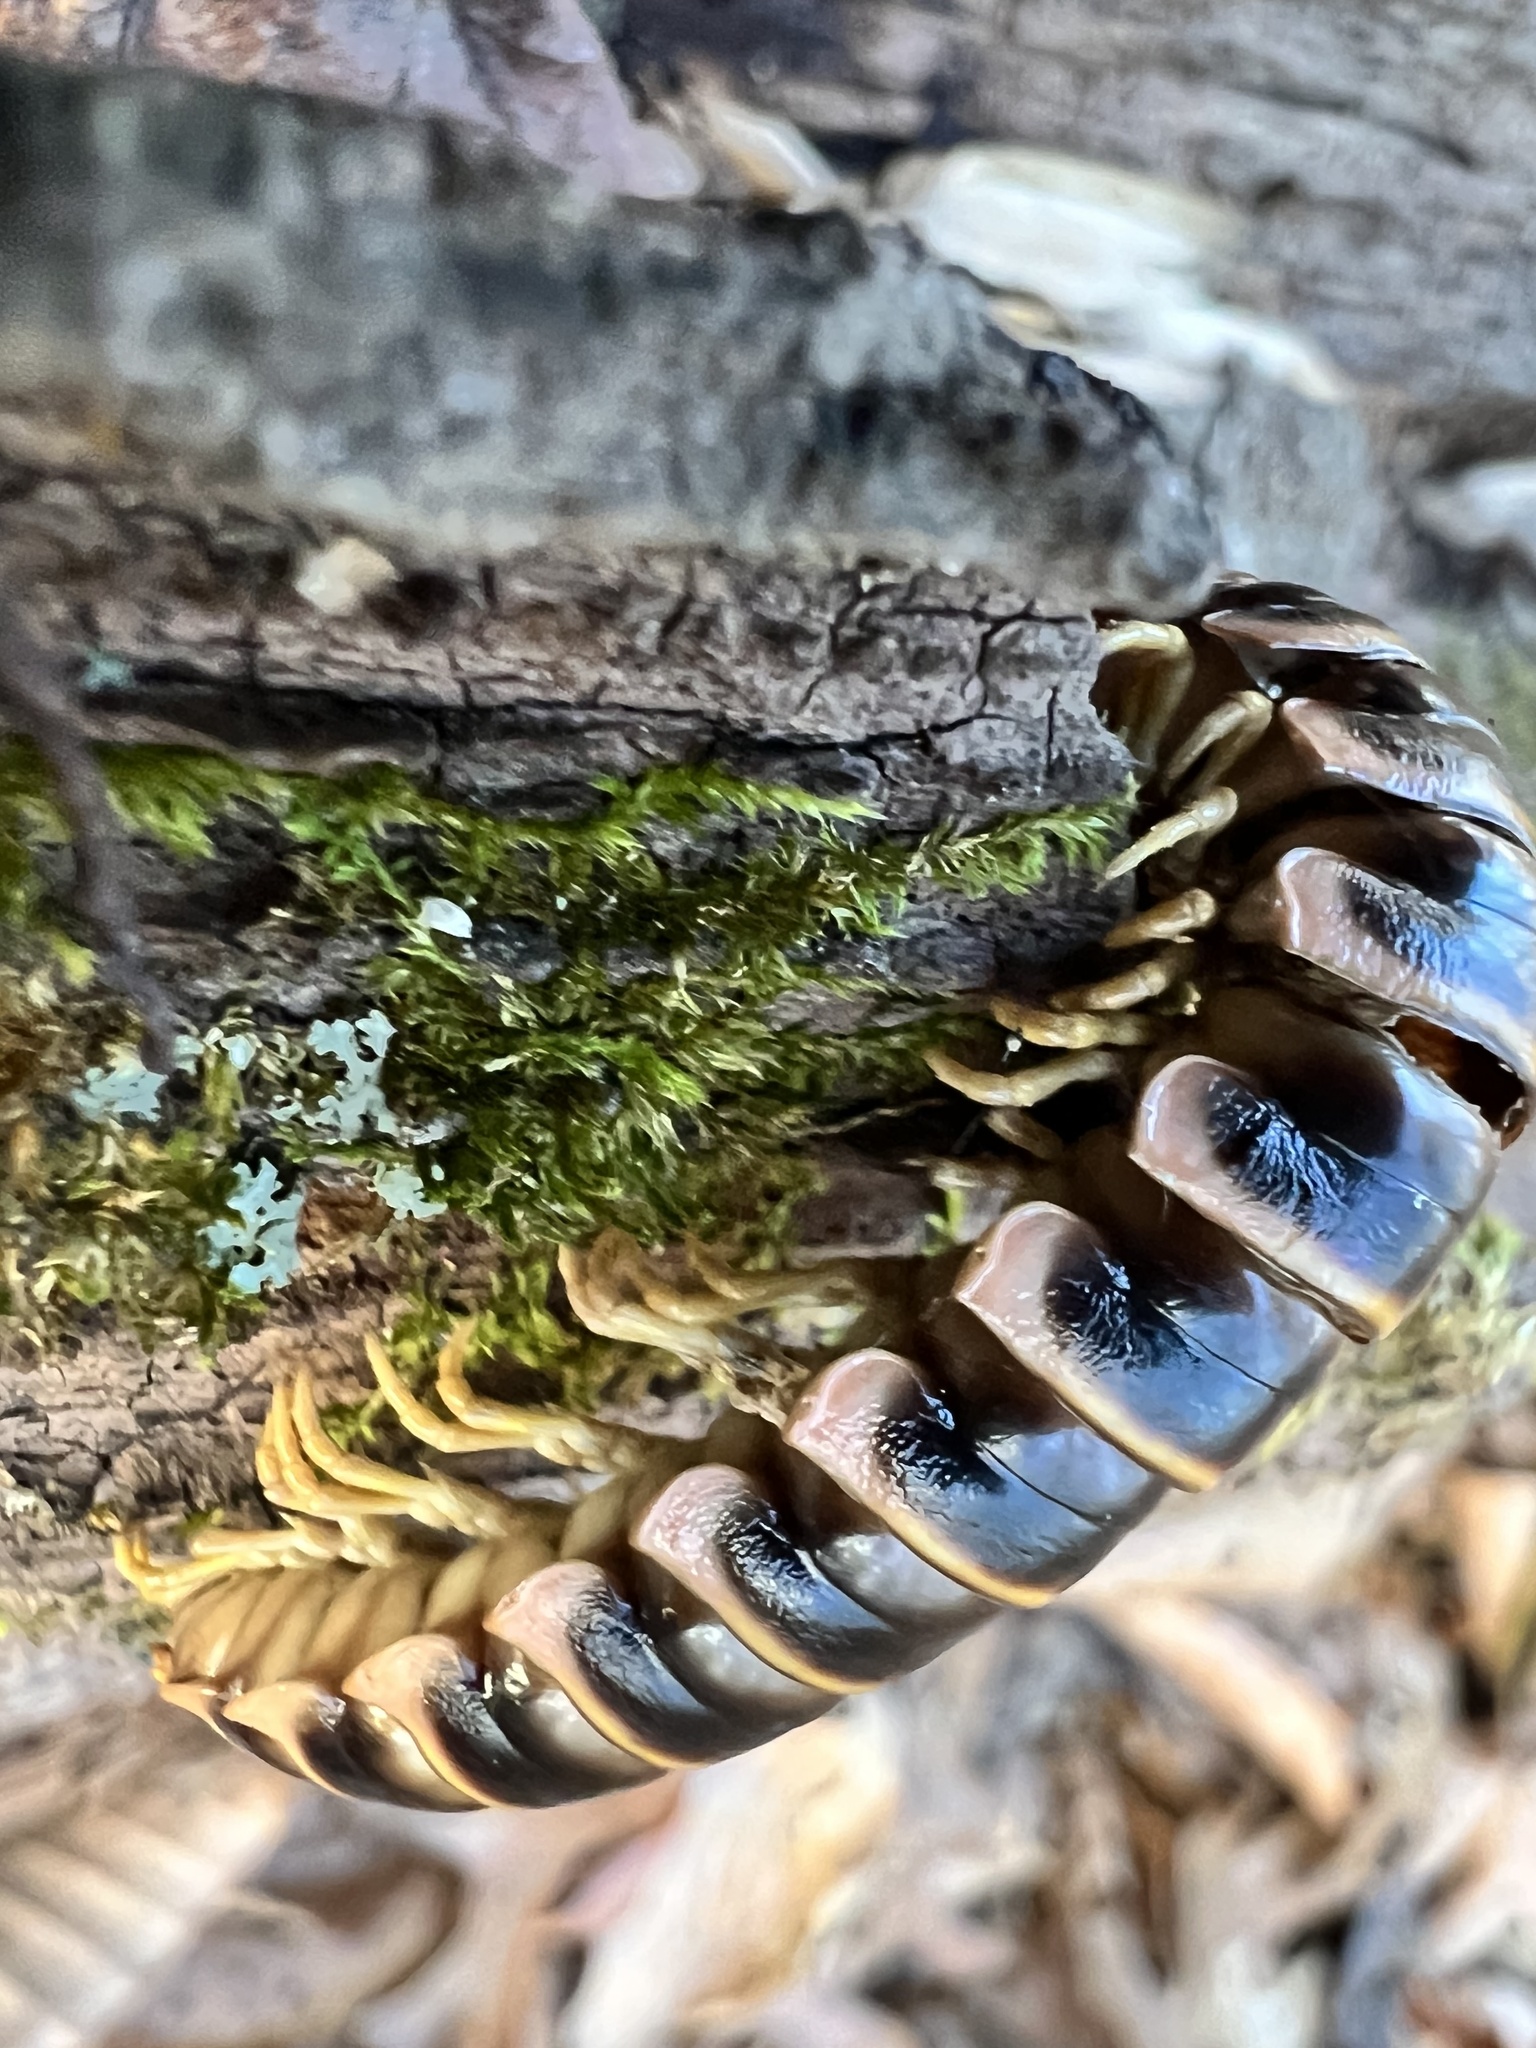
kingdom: Fungi
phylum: Entomophthoromycota
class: Entomophthoromycetes
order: Entomophthorales
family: Entomophthoraceae
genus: Arthrophaga
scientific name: Arthrophaga myriapodina
